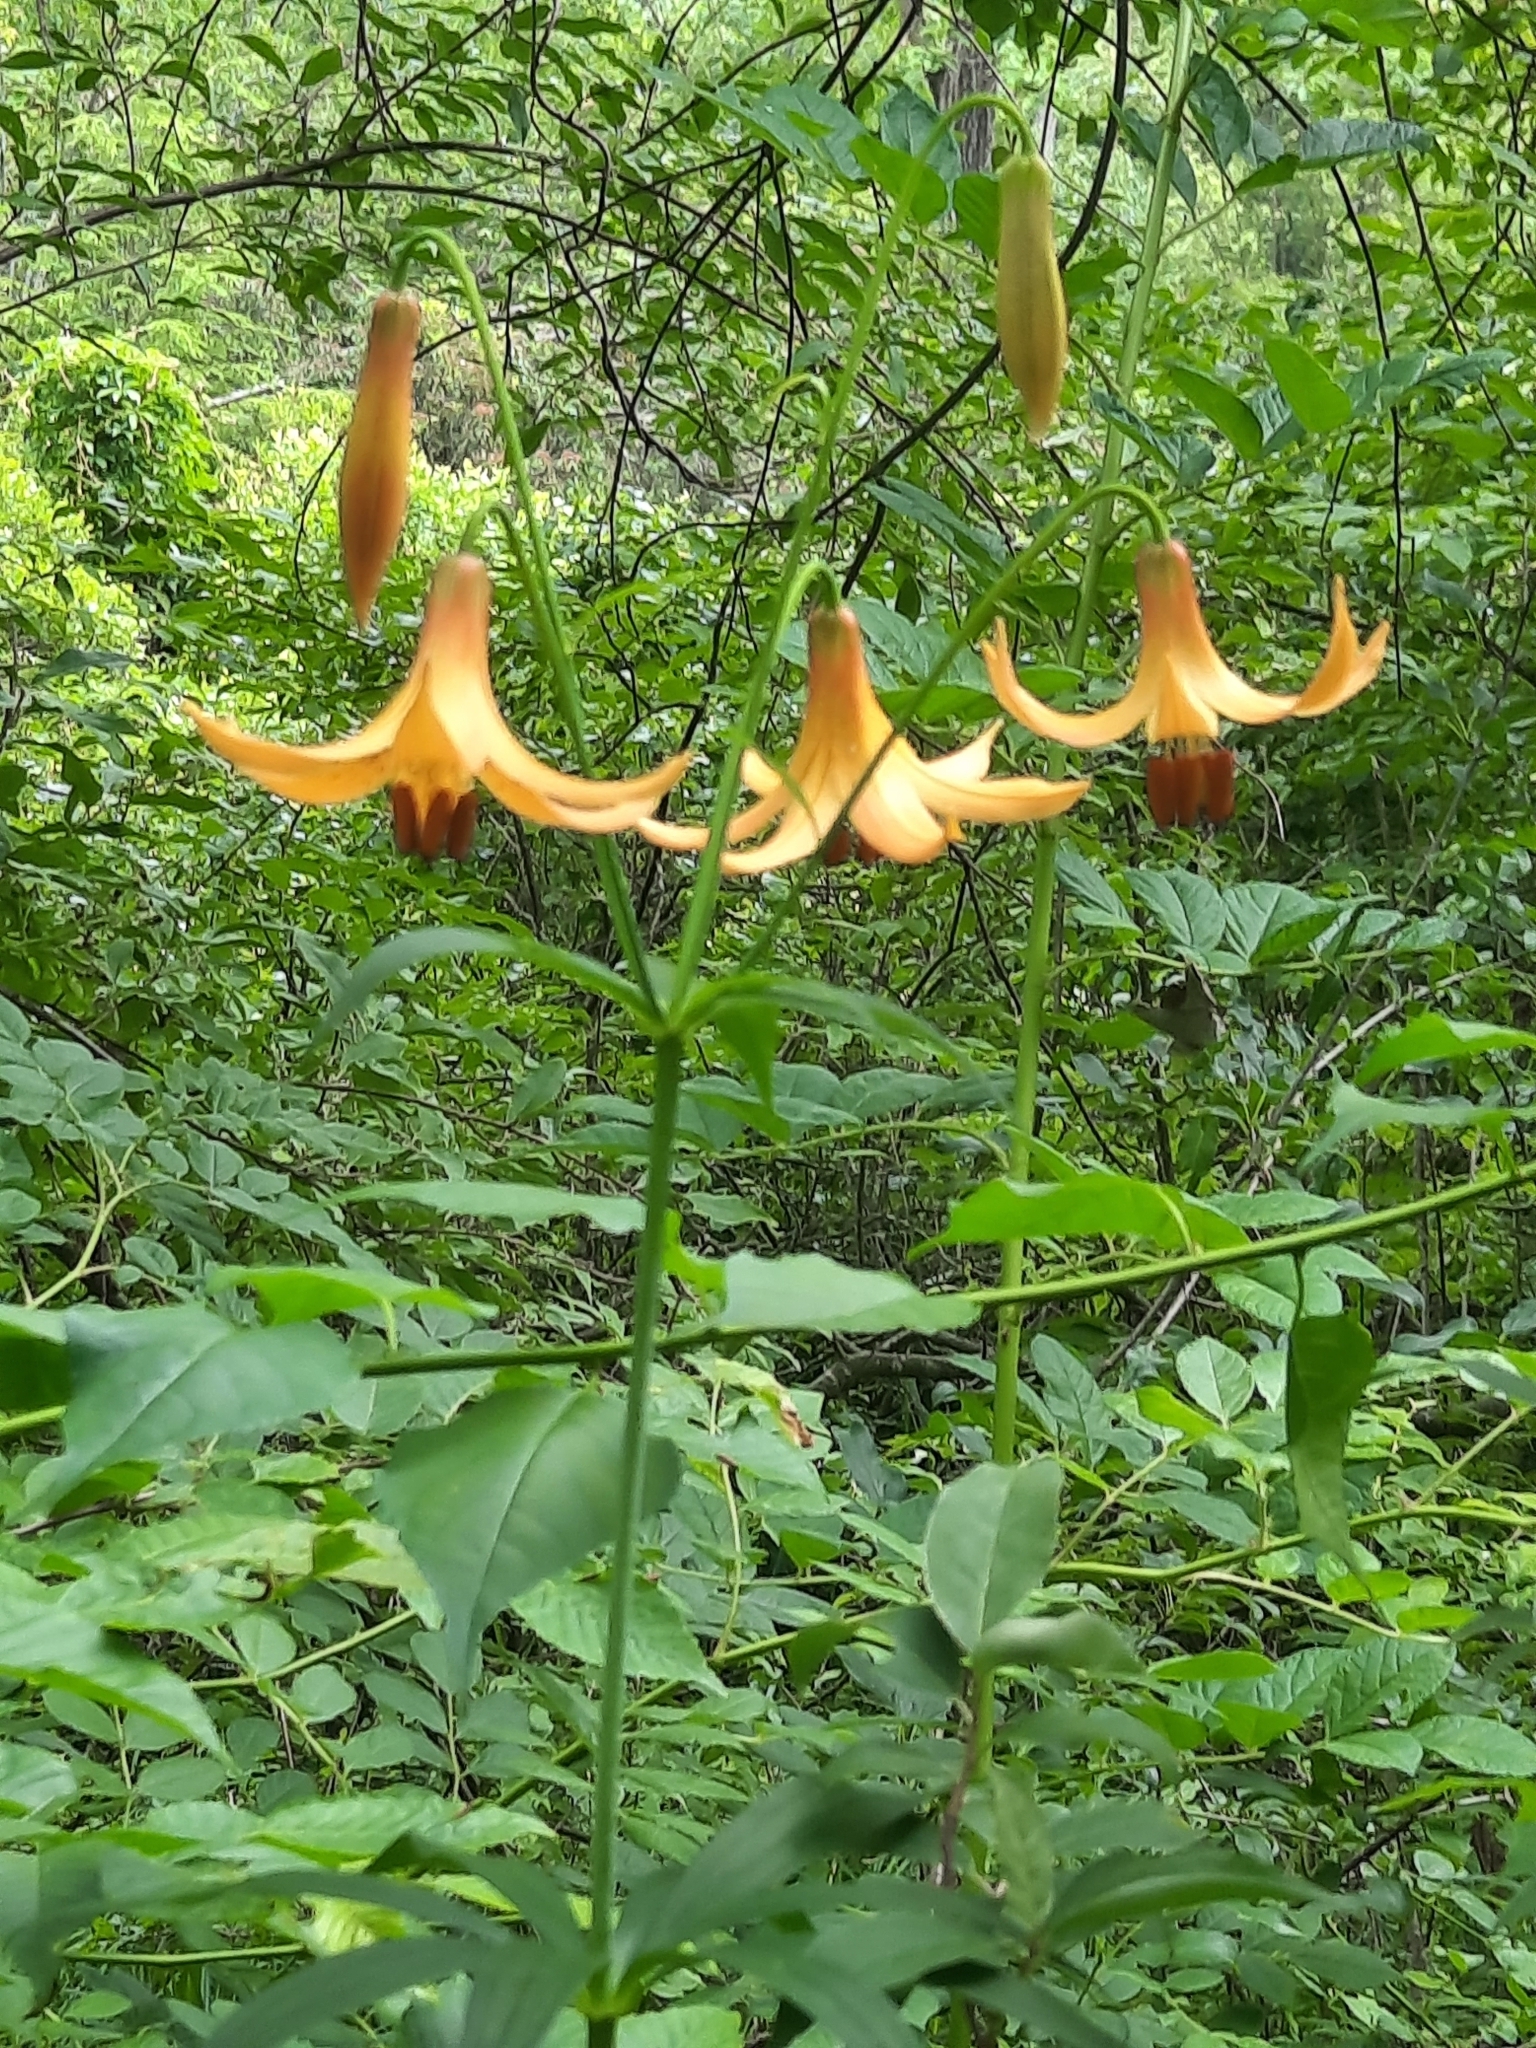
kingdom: Plantae
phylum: Tracheophyta
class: Liliopsida
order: Liliales
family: Liliaceae
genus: Lilium
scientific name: Lilium canadense
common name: Canada lily
